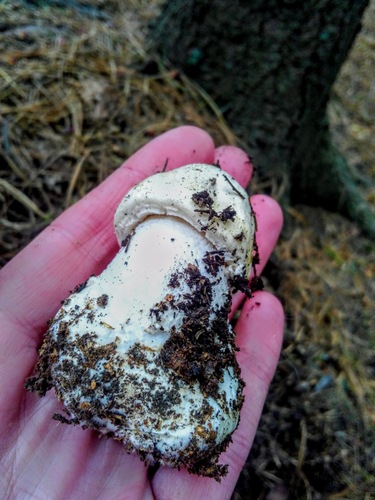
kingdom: Fungi
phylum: Basidiomycota
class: Agaricomycetes
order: Agaricales
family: Agaricaceae
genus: Agaricus
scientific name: Agaricus arvensis
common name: Horse mushroom
